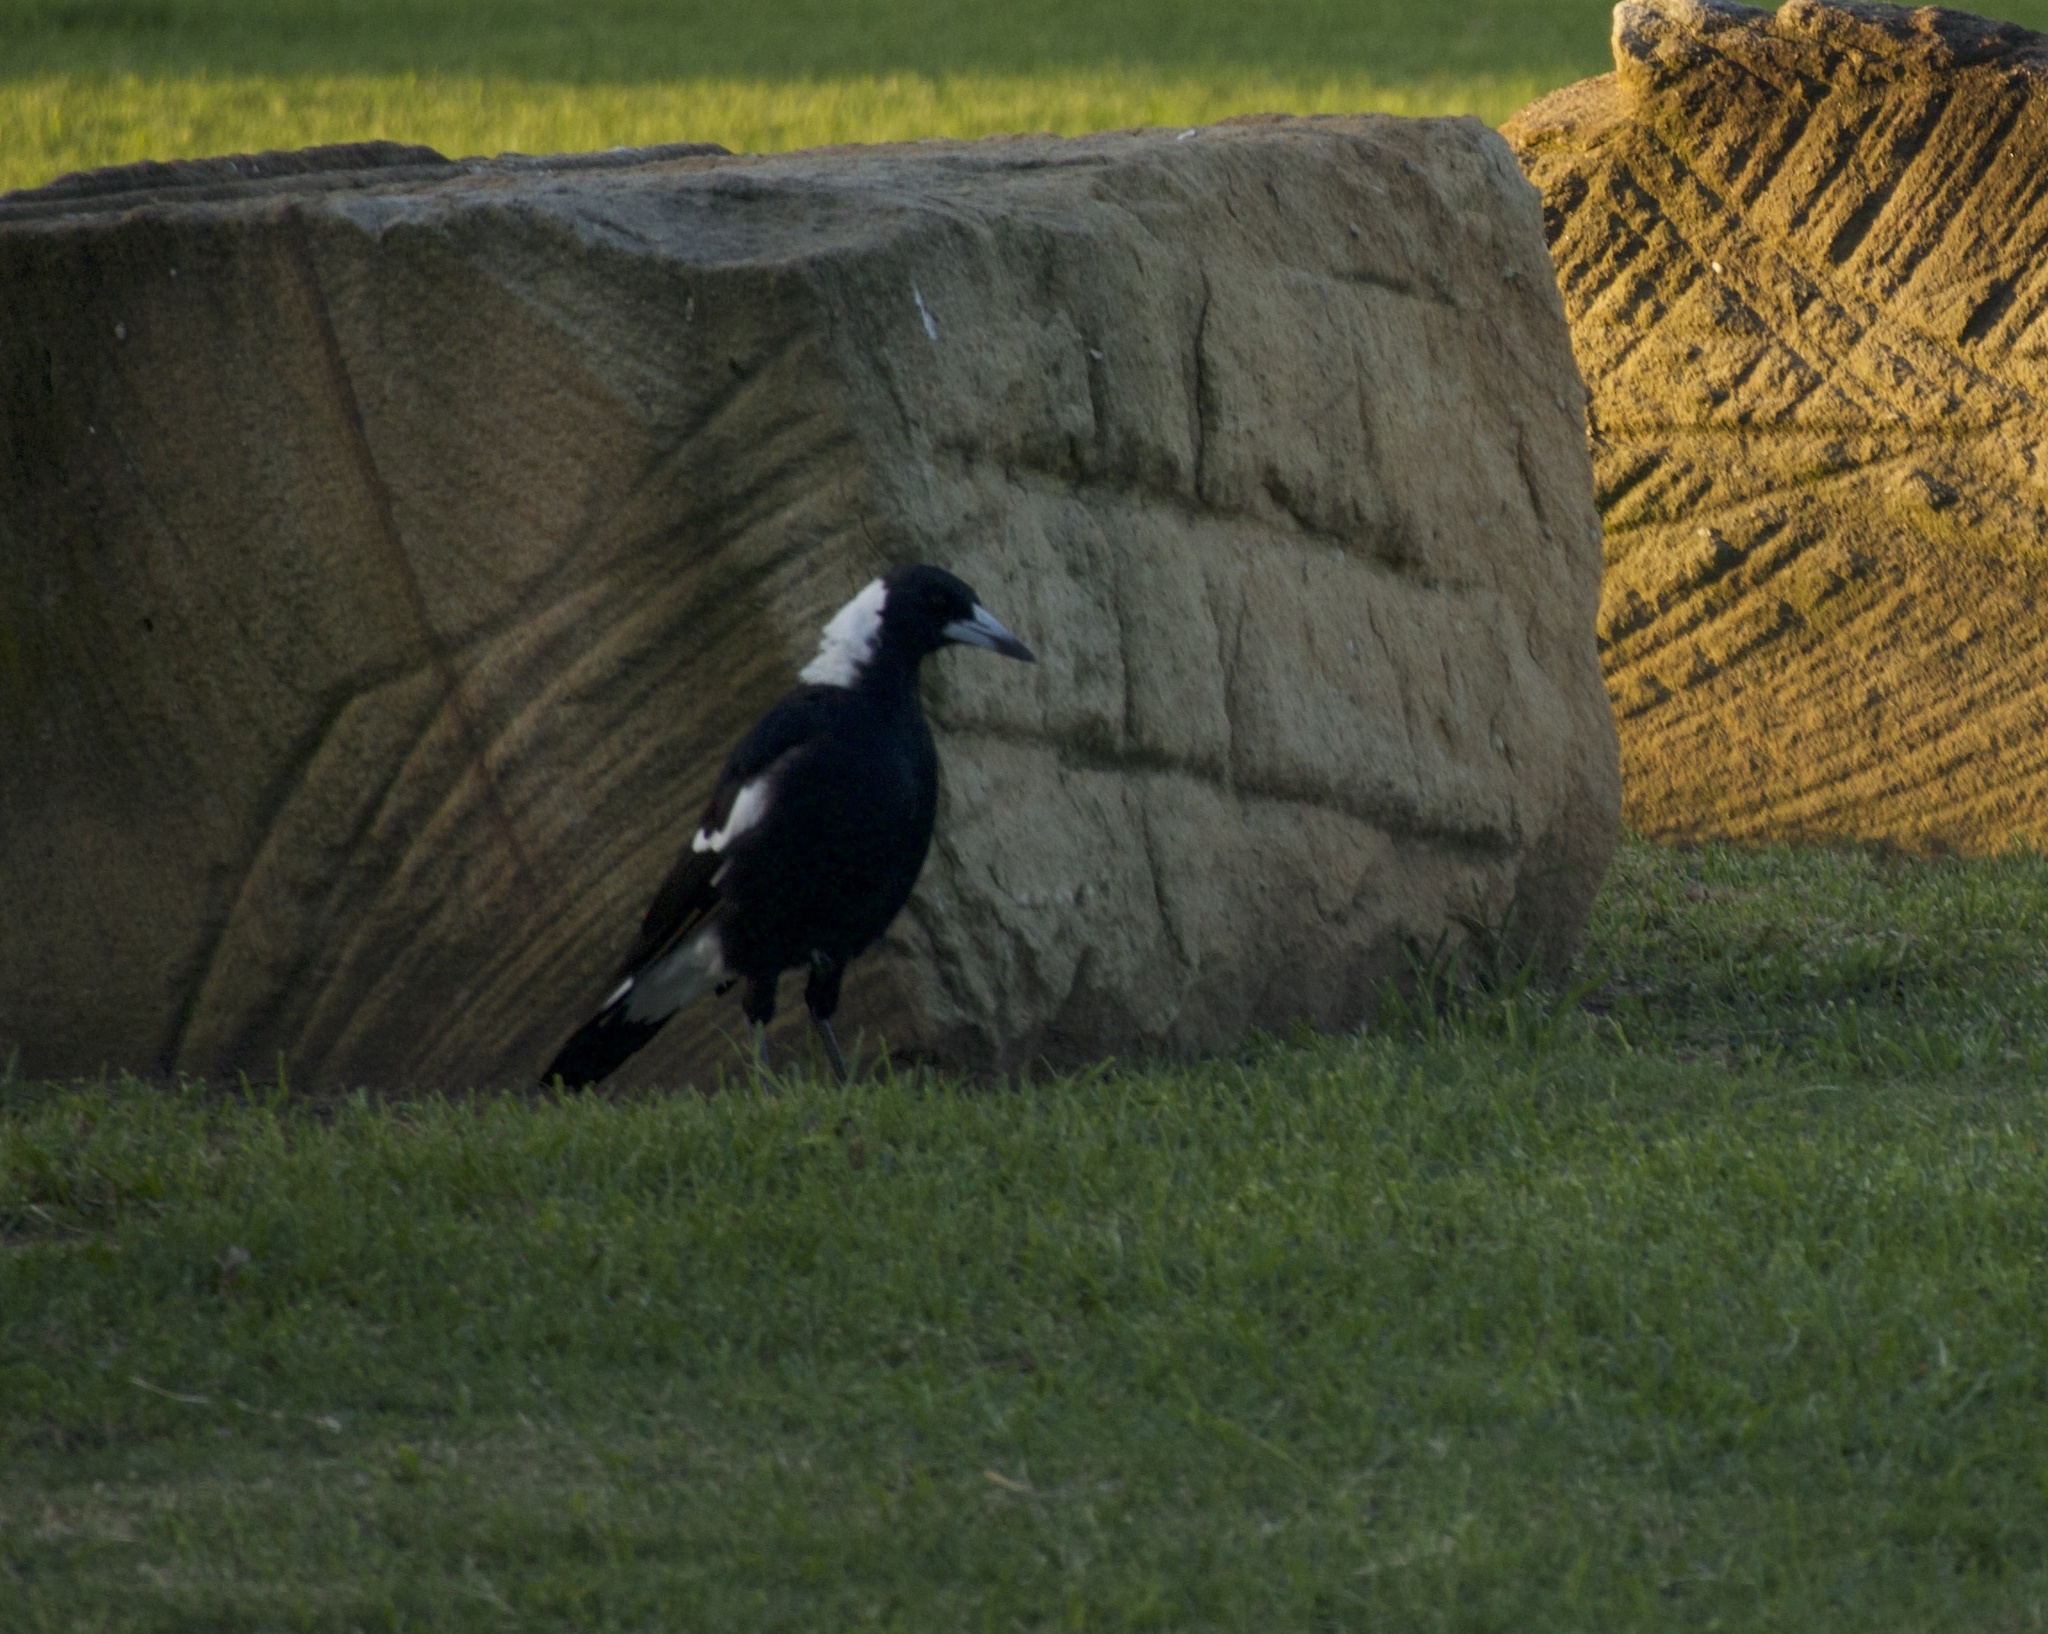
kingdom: Animalia
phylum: Chordata
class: Aves
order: Passeriformes
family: Cracticidae
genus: Gymnorhina
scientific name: Gymnorhina tibicen
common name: Australian magpie
